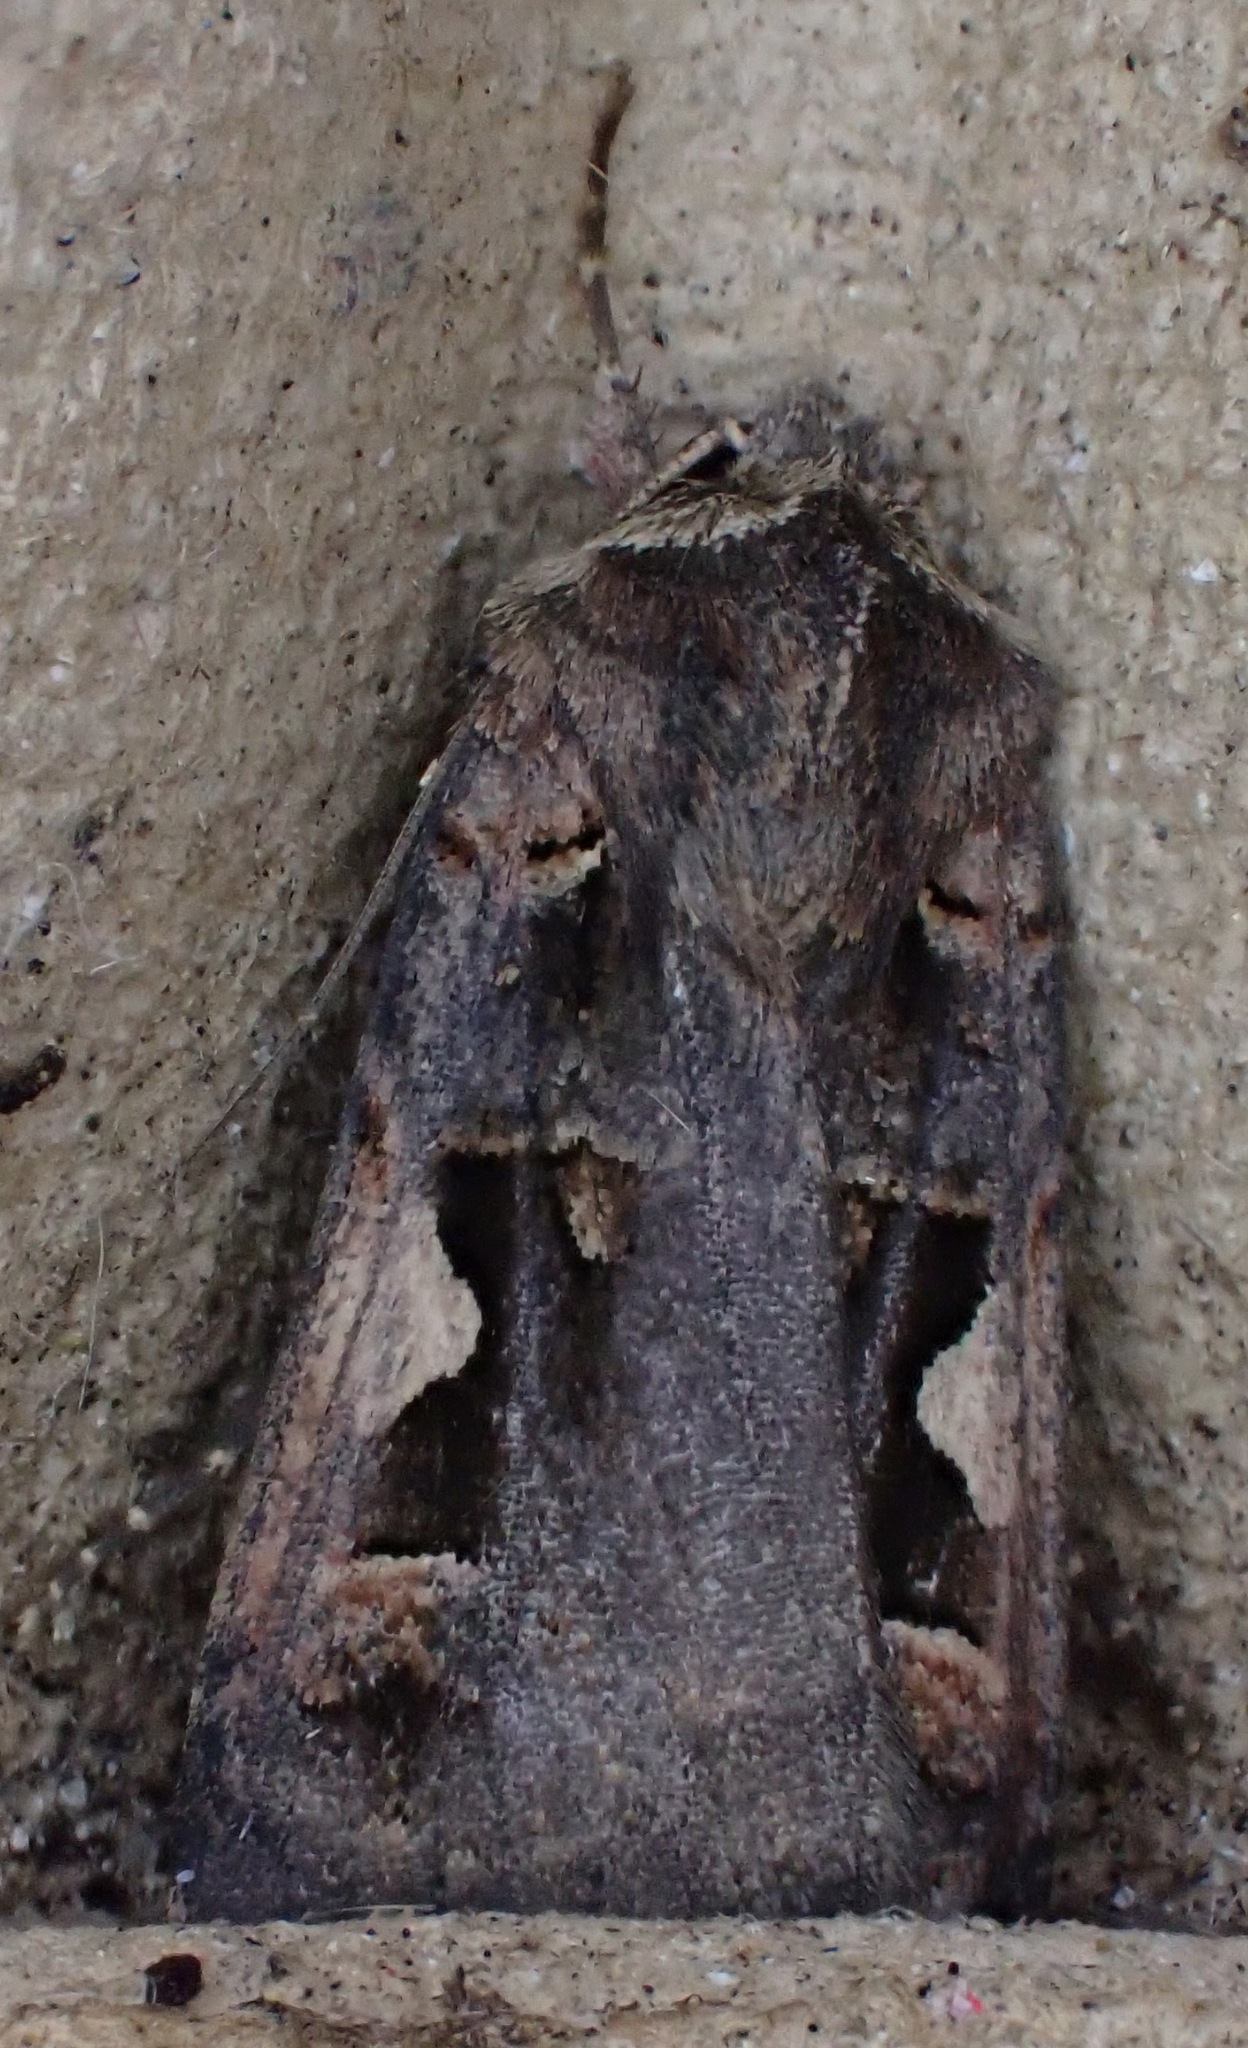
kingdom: Animalia
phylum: Arthropoda
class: Insecta
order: Lepidoptera
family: Noctuidae
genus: Xestia
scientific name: Xestia c-nigrum
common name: Setaceous hebrew character
